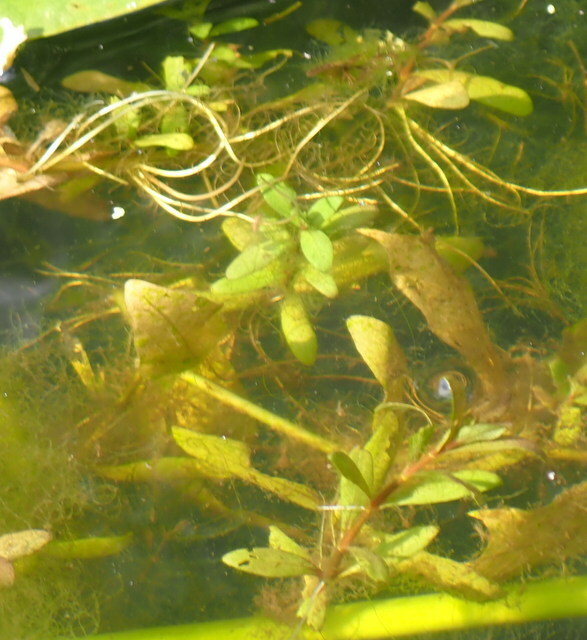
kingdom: Plantae
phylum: Tracheophyta
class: Magnoliopsida
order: Lamiales
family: Acanthaceae
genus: Hygrophila
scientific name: Hygrophila polysperma
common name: Indian swampweed
